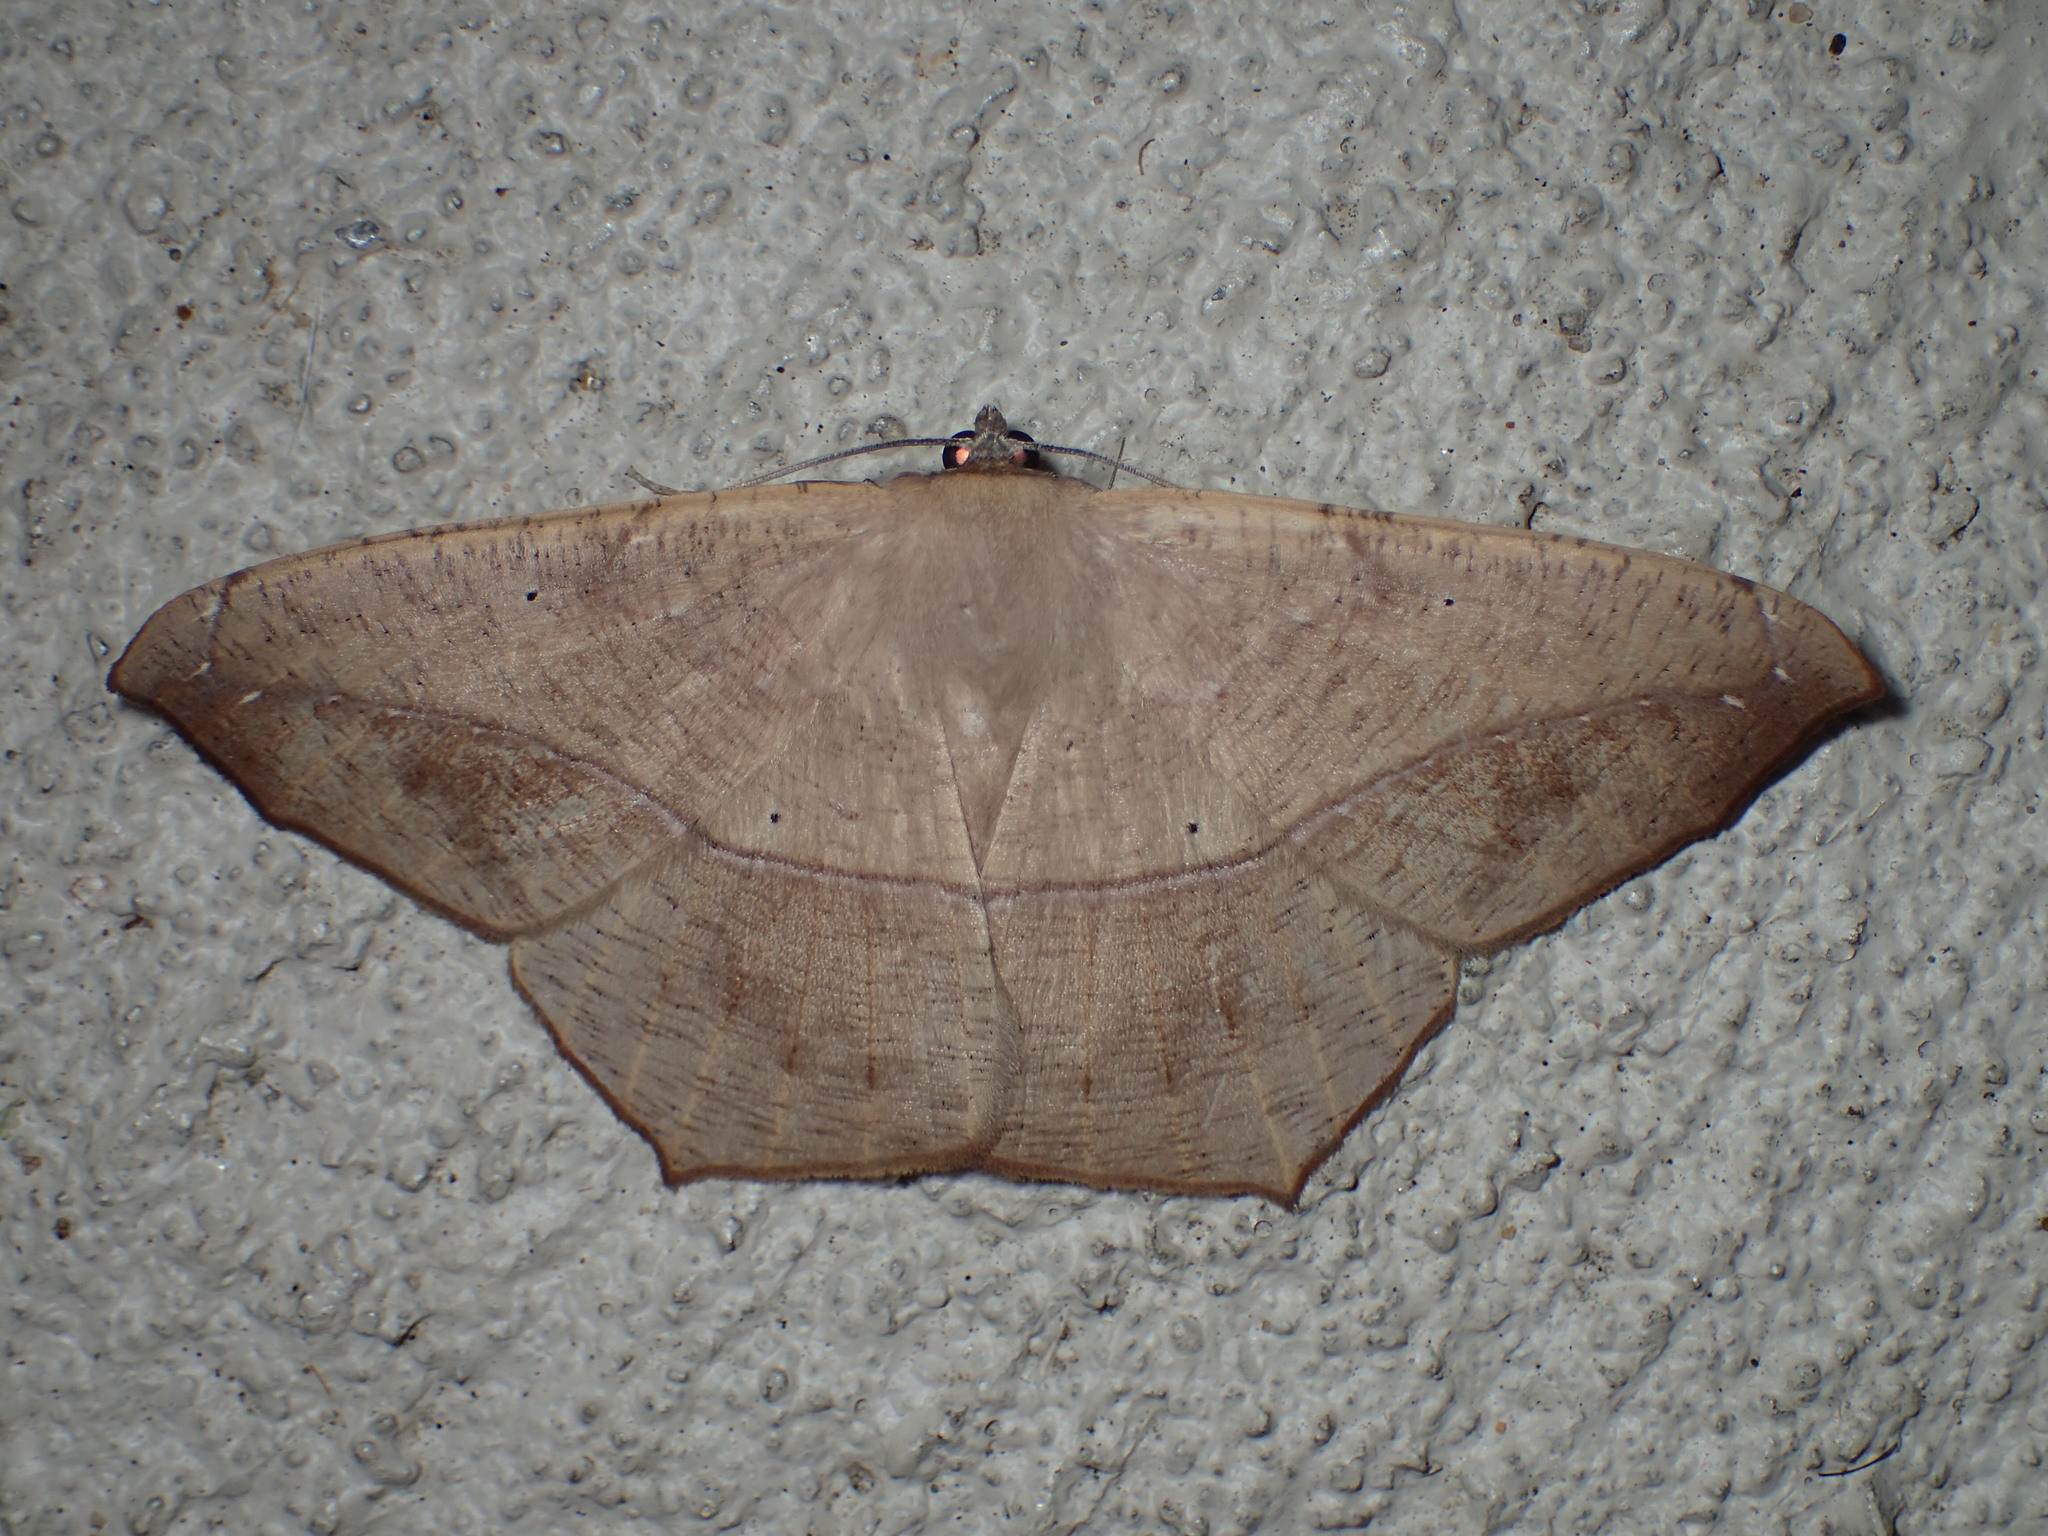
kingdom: Animalia
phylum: Arthropoda
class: Insecta
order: Lepidoptera
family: Geometridae
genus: Prochoerodes
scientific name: Prochoerodes lineola
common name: Large maple spanworm
